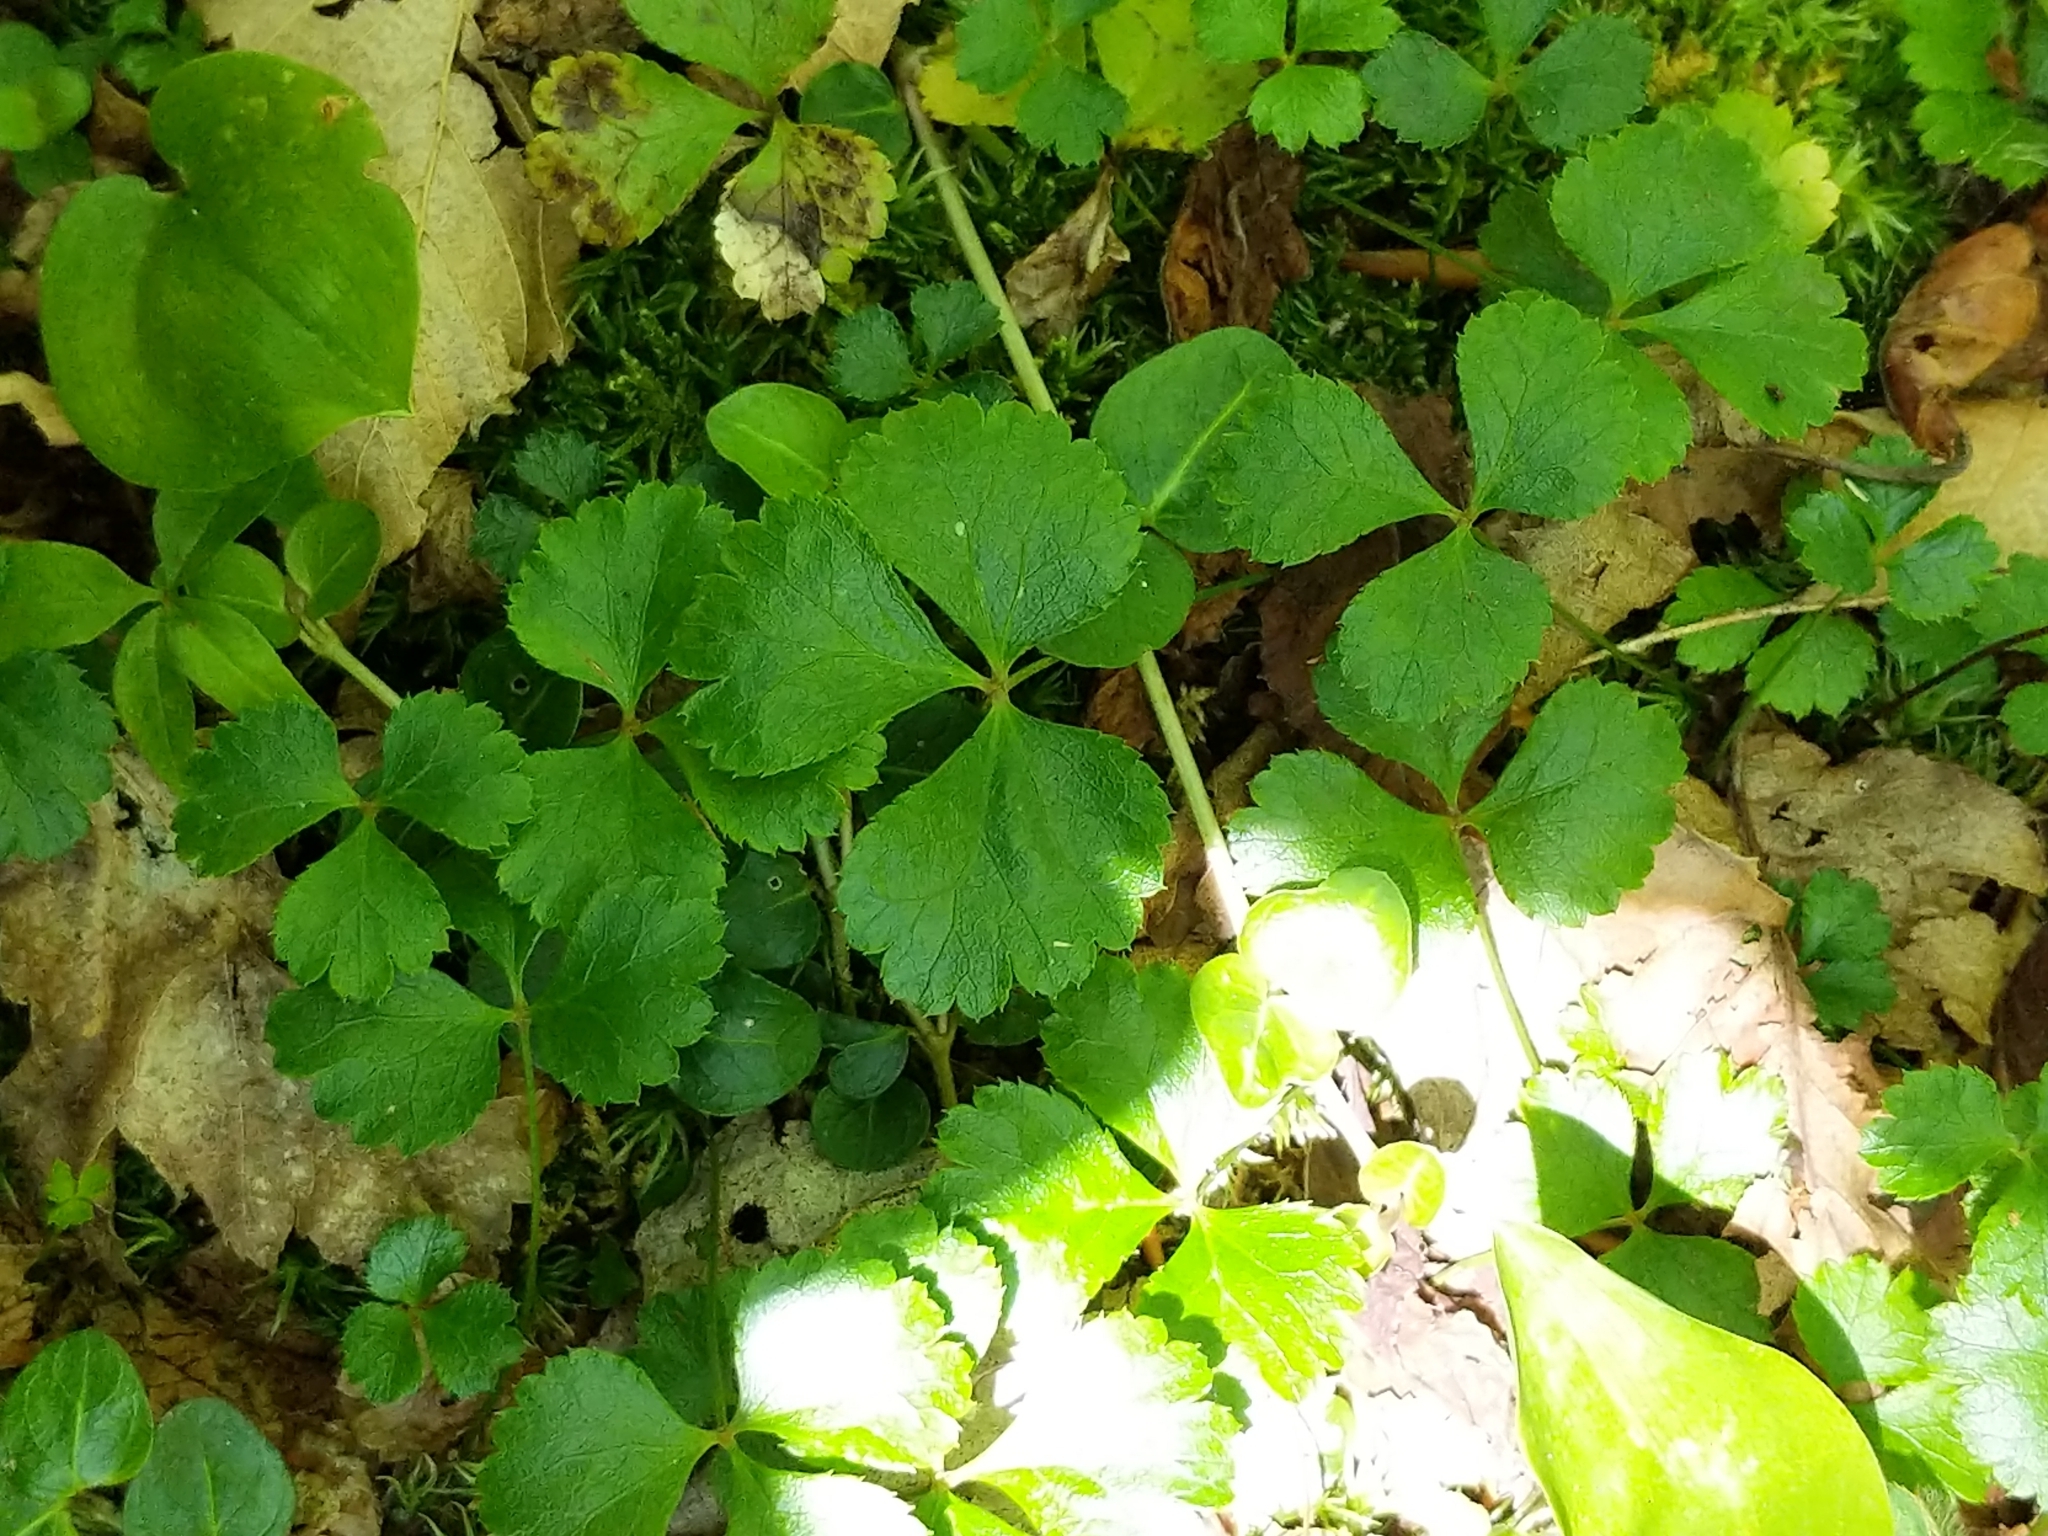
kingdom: Plantae
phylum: Tracheophyta
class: Magnoliopsida
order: Ranunculales
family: Ranunculaceae
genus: Coptis
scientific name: Coptis trifolia
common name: Canker-root
